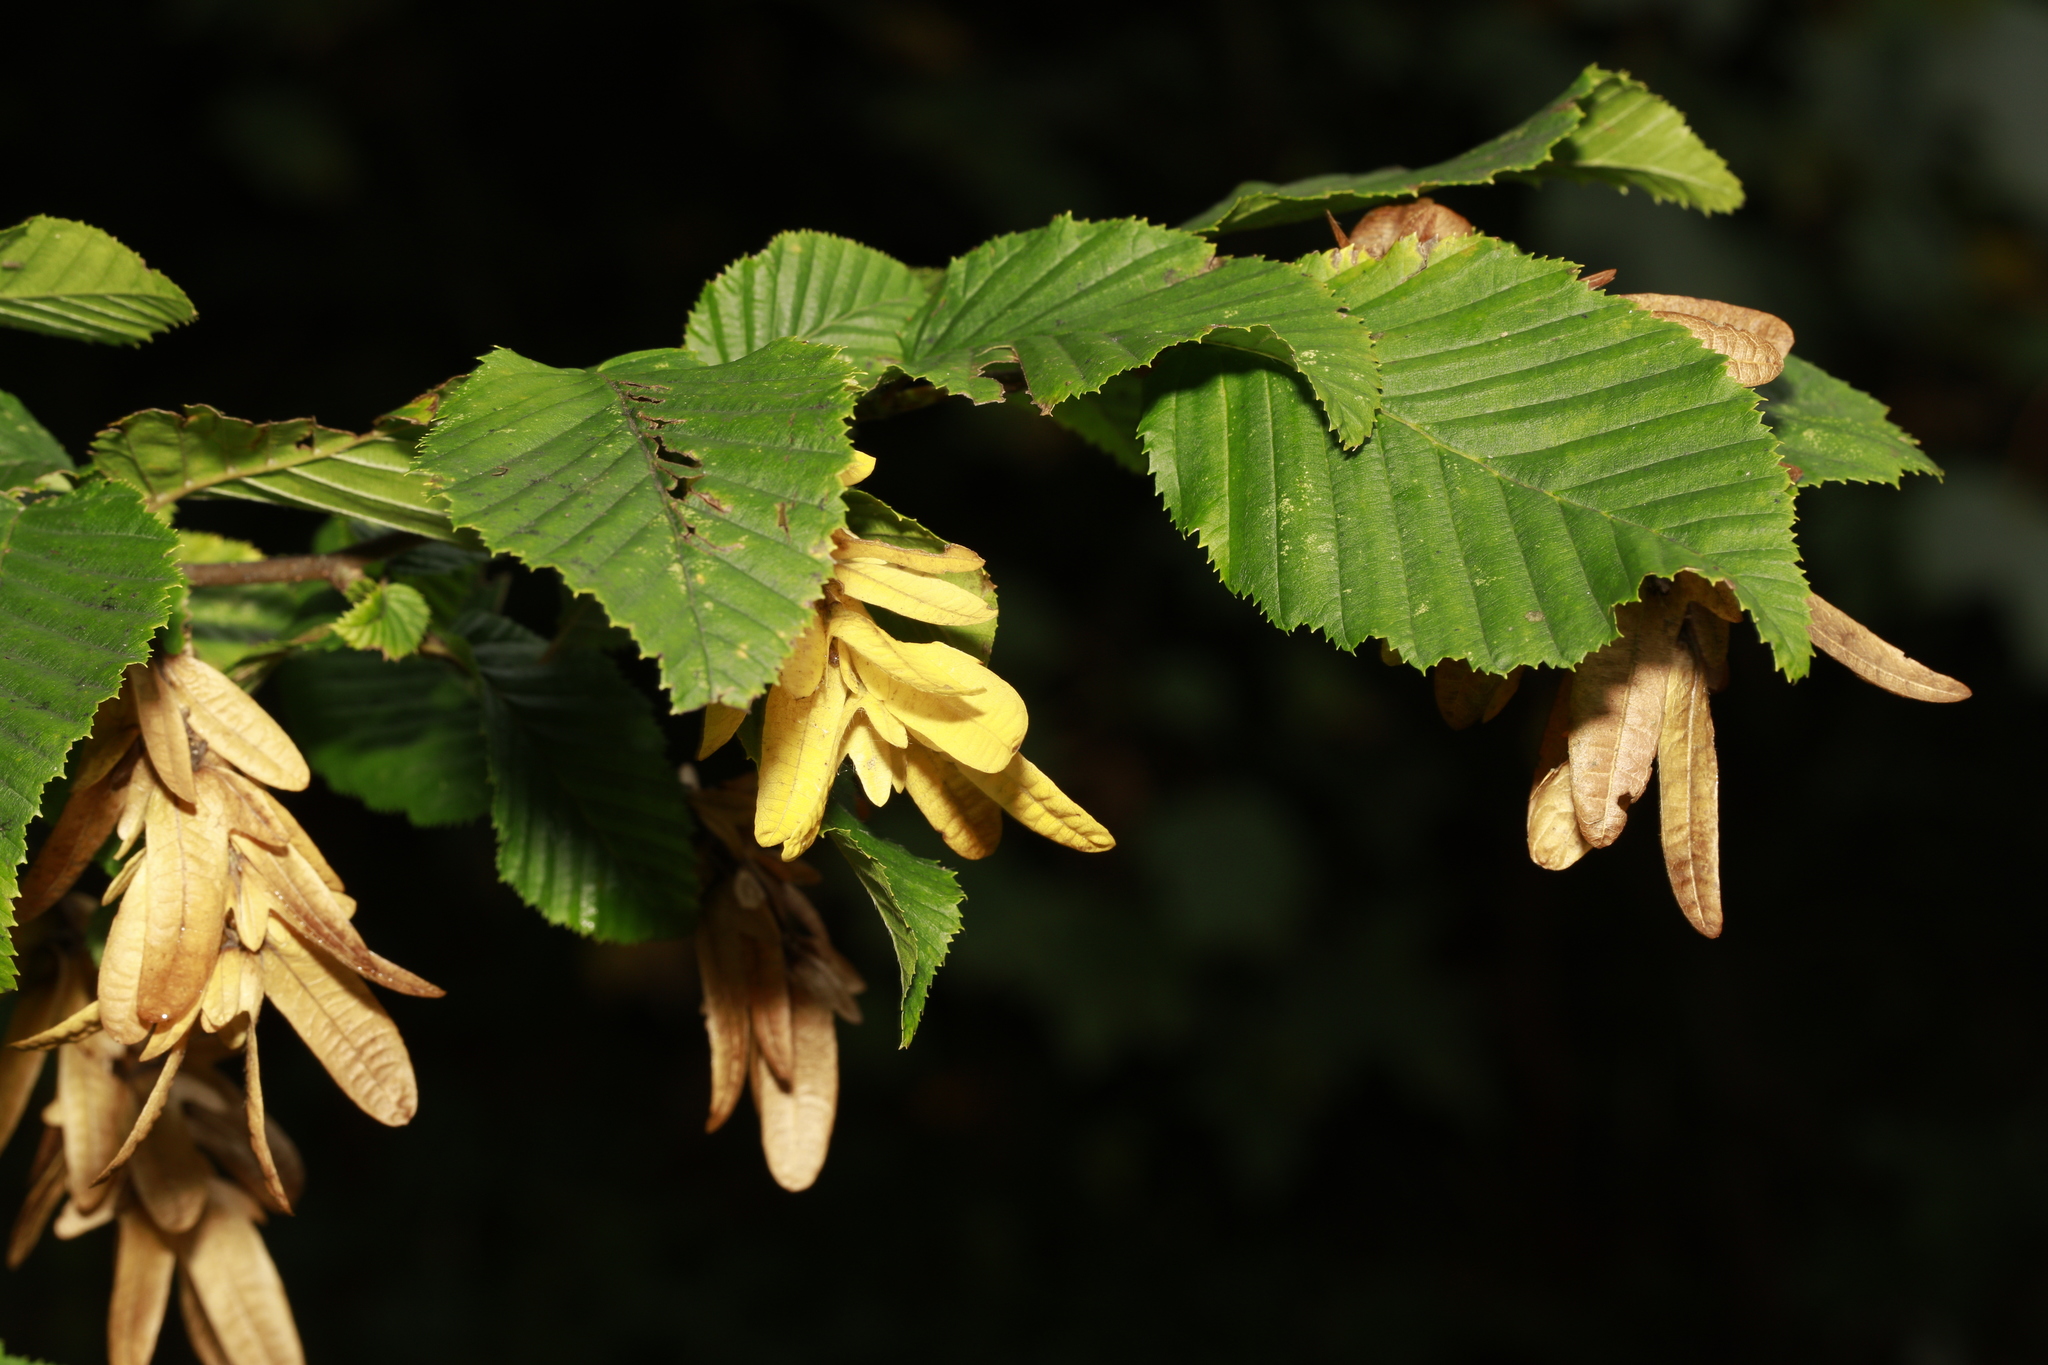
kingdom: Plantae
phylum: Tracheophyta
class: Magnoliopsida
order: Fagales
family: Betulaceae
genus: Carpinus
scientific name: Carpinus betulus
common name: Hornbeam
